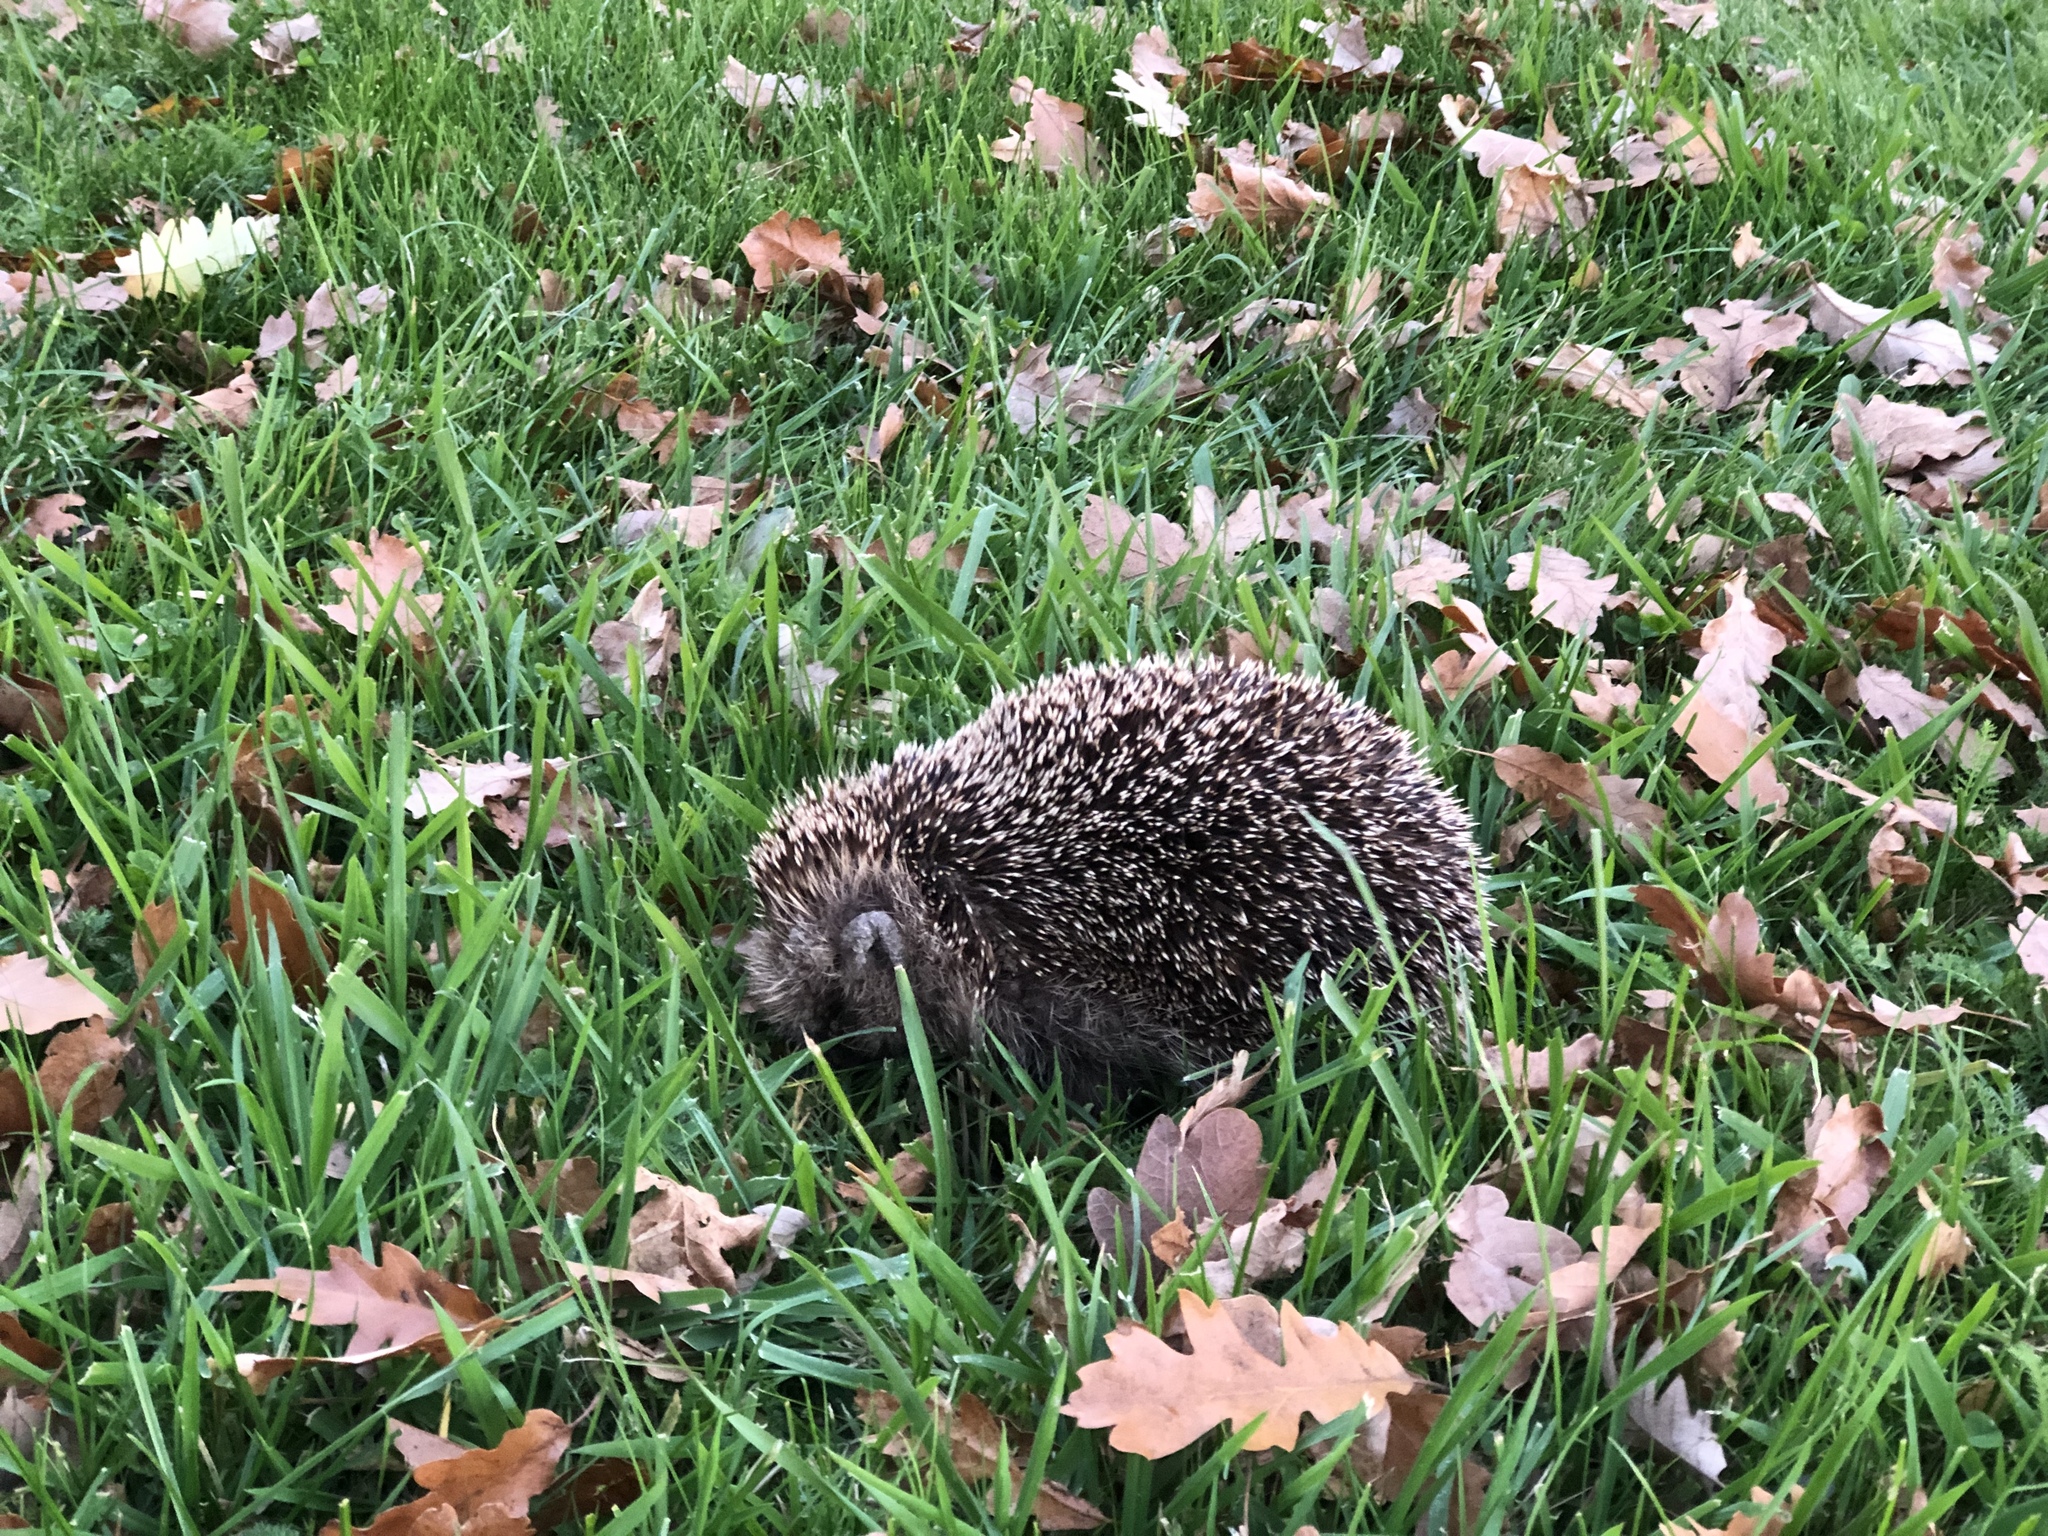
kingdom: Animalia
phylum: Chordata
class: Mammalia
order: Erinaceomorpha
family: Erinaceidae
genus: Erinaceus
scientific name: Erinaceus europaeus
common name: West european hedgehog
